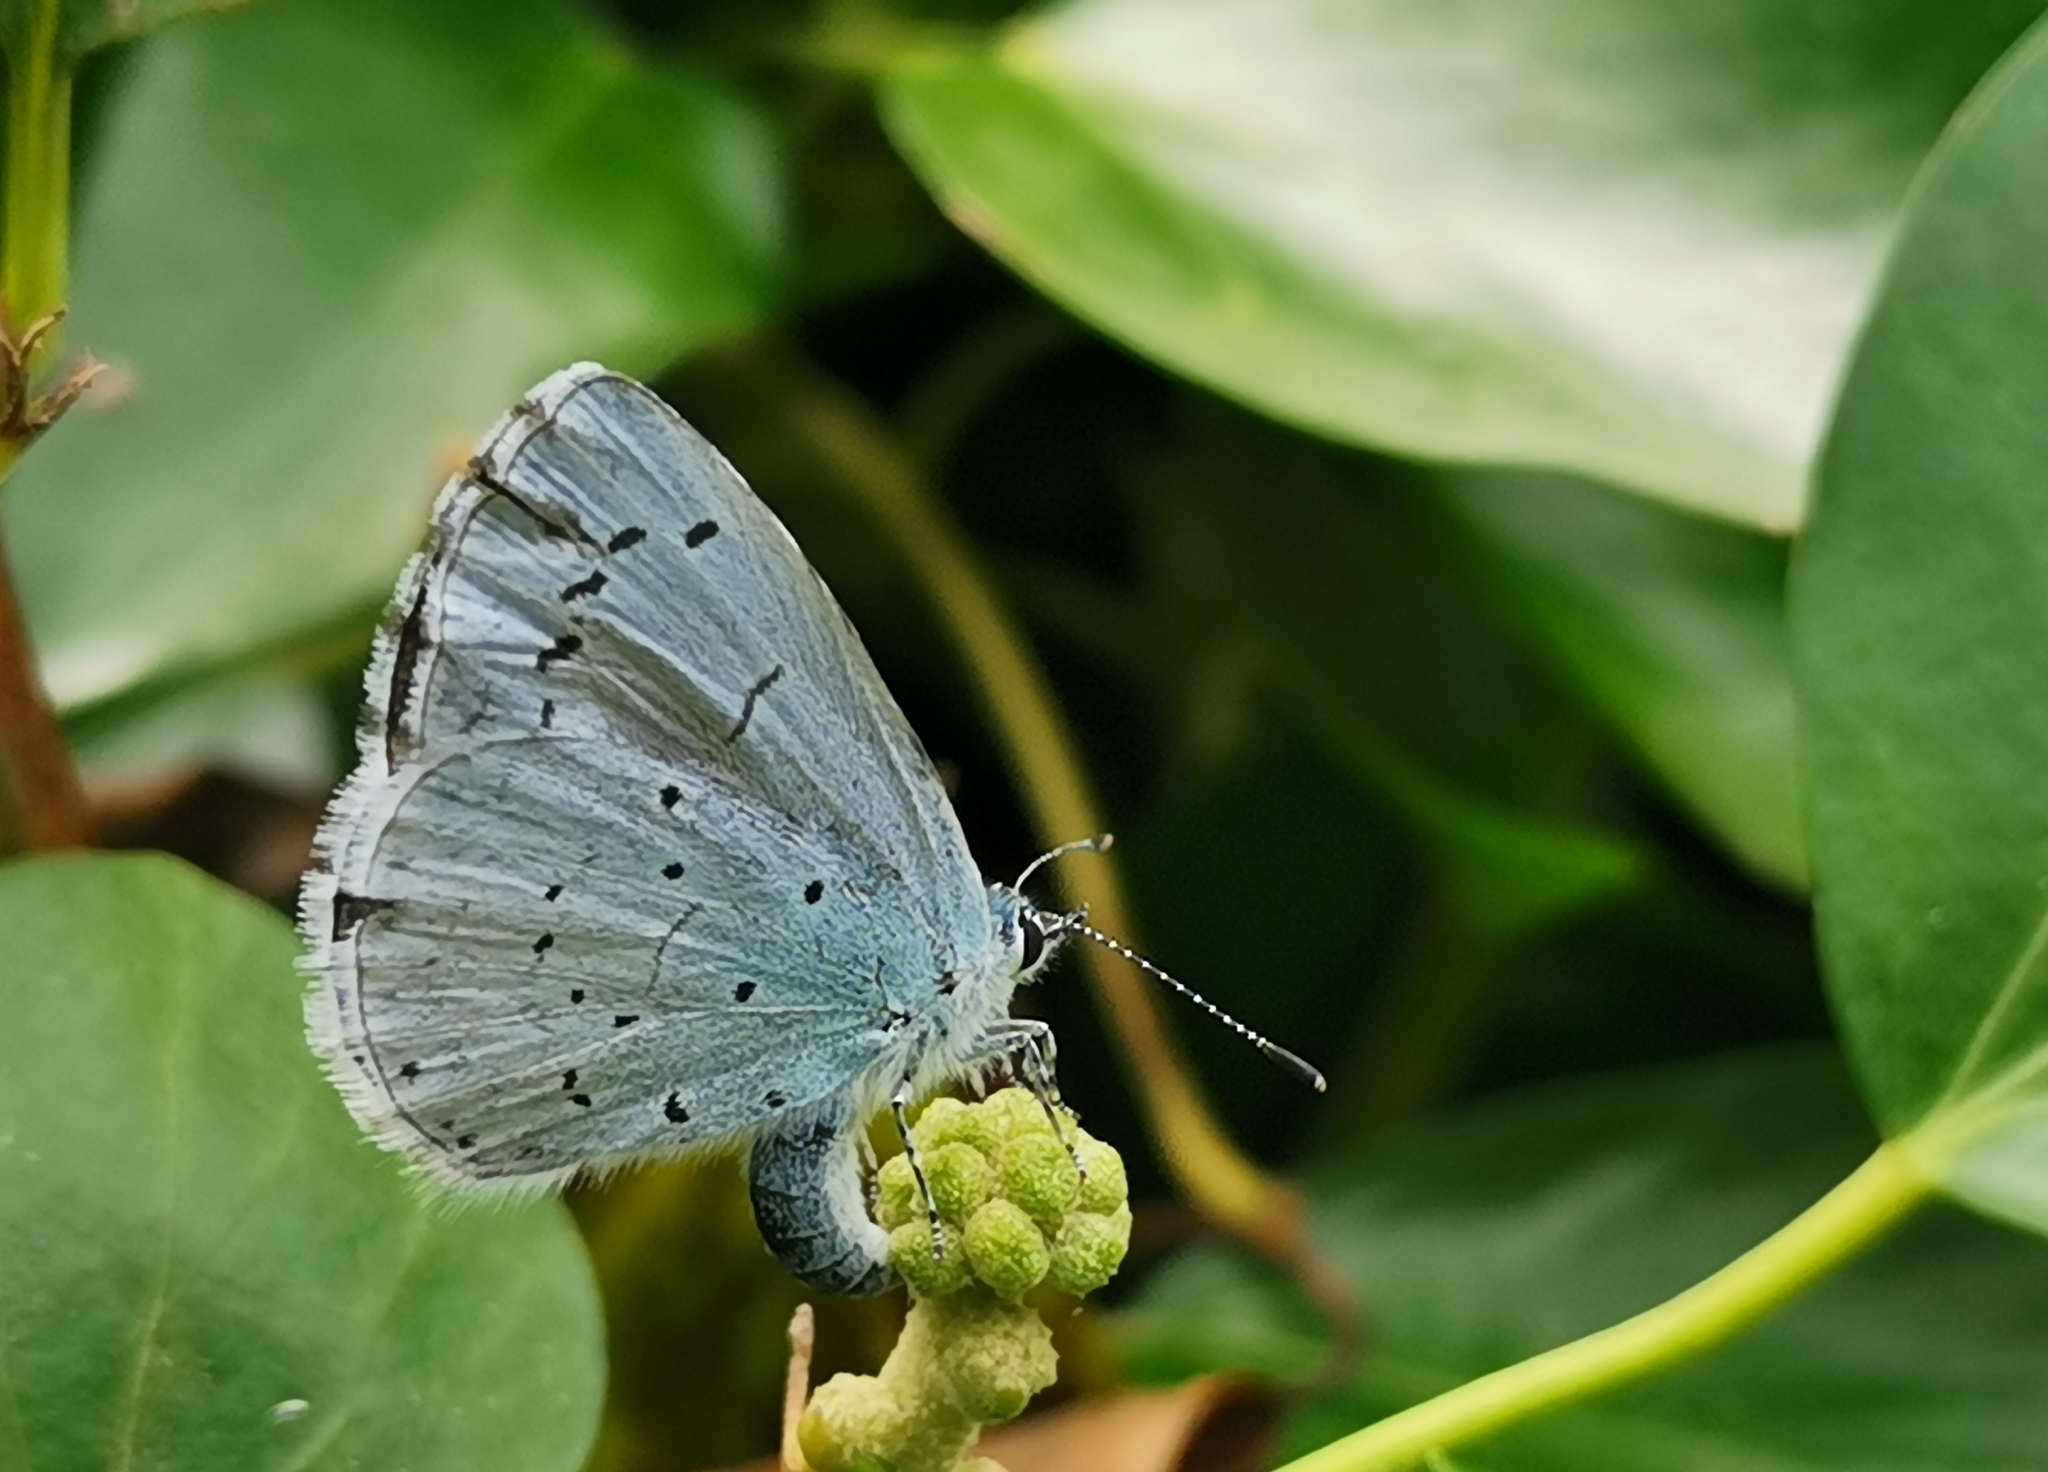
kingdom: Animalia
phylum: Arthropoda
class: Insecta
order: Lepidoptera
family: Lycaenidae
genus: Celastrina
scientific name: Celastrina argiolus
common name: Holly blue
